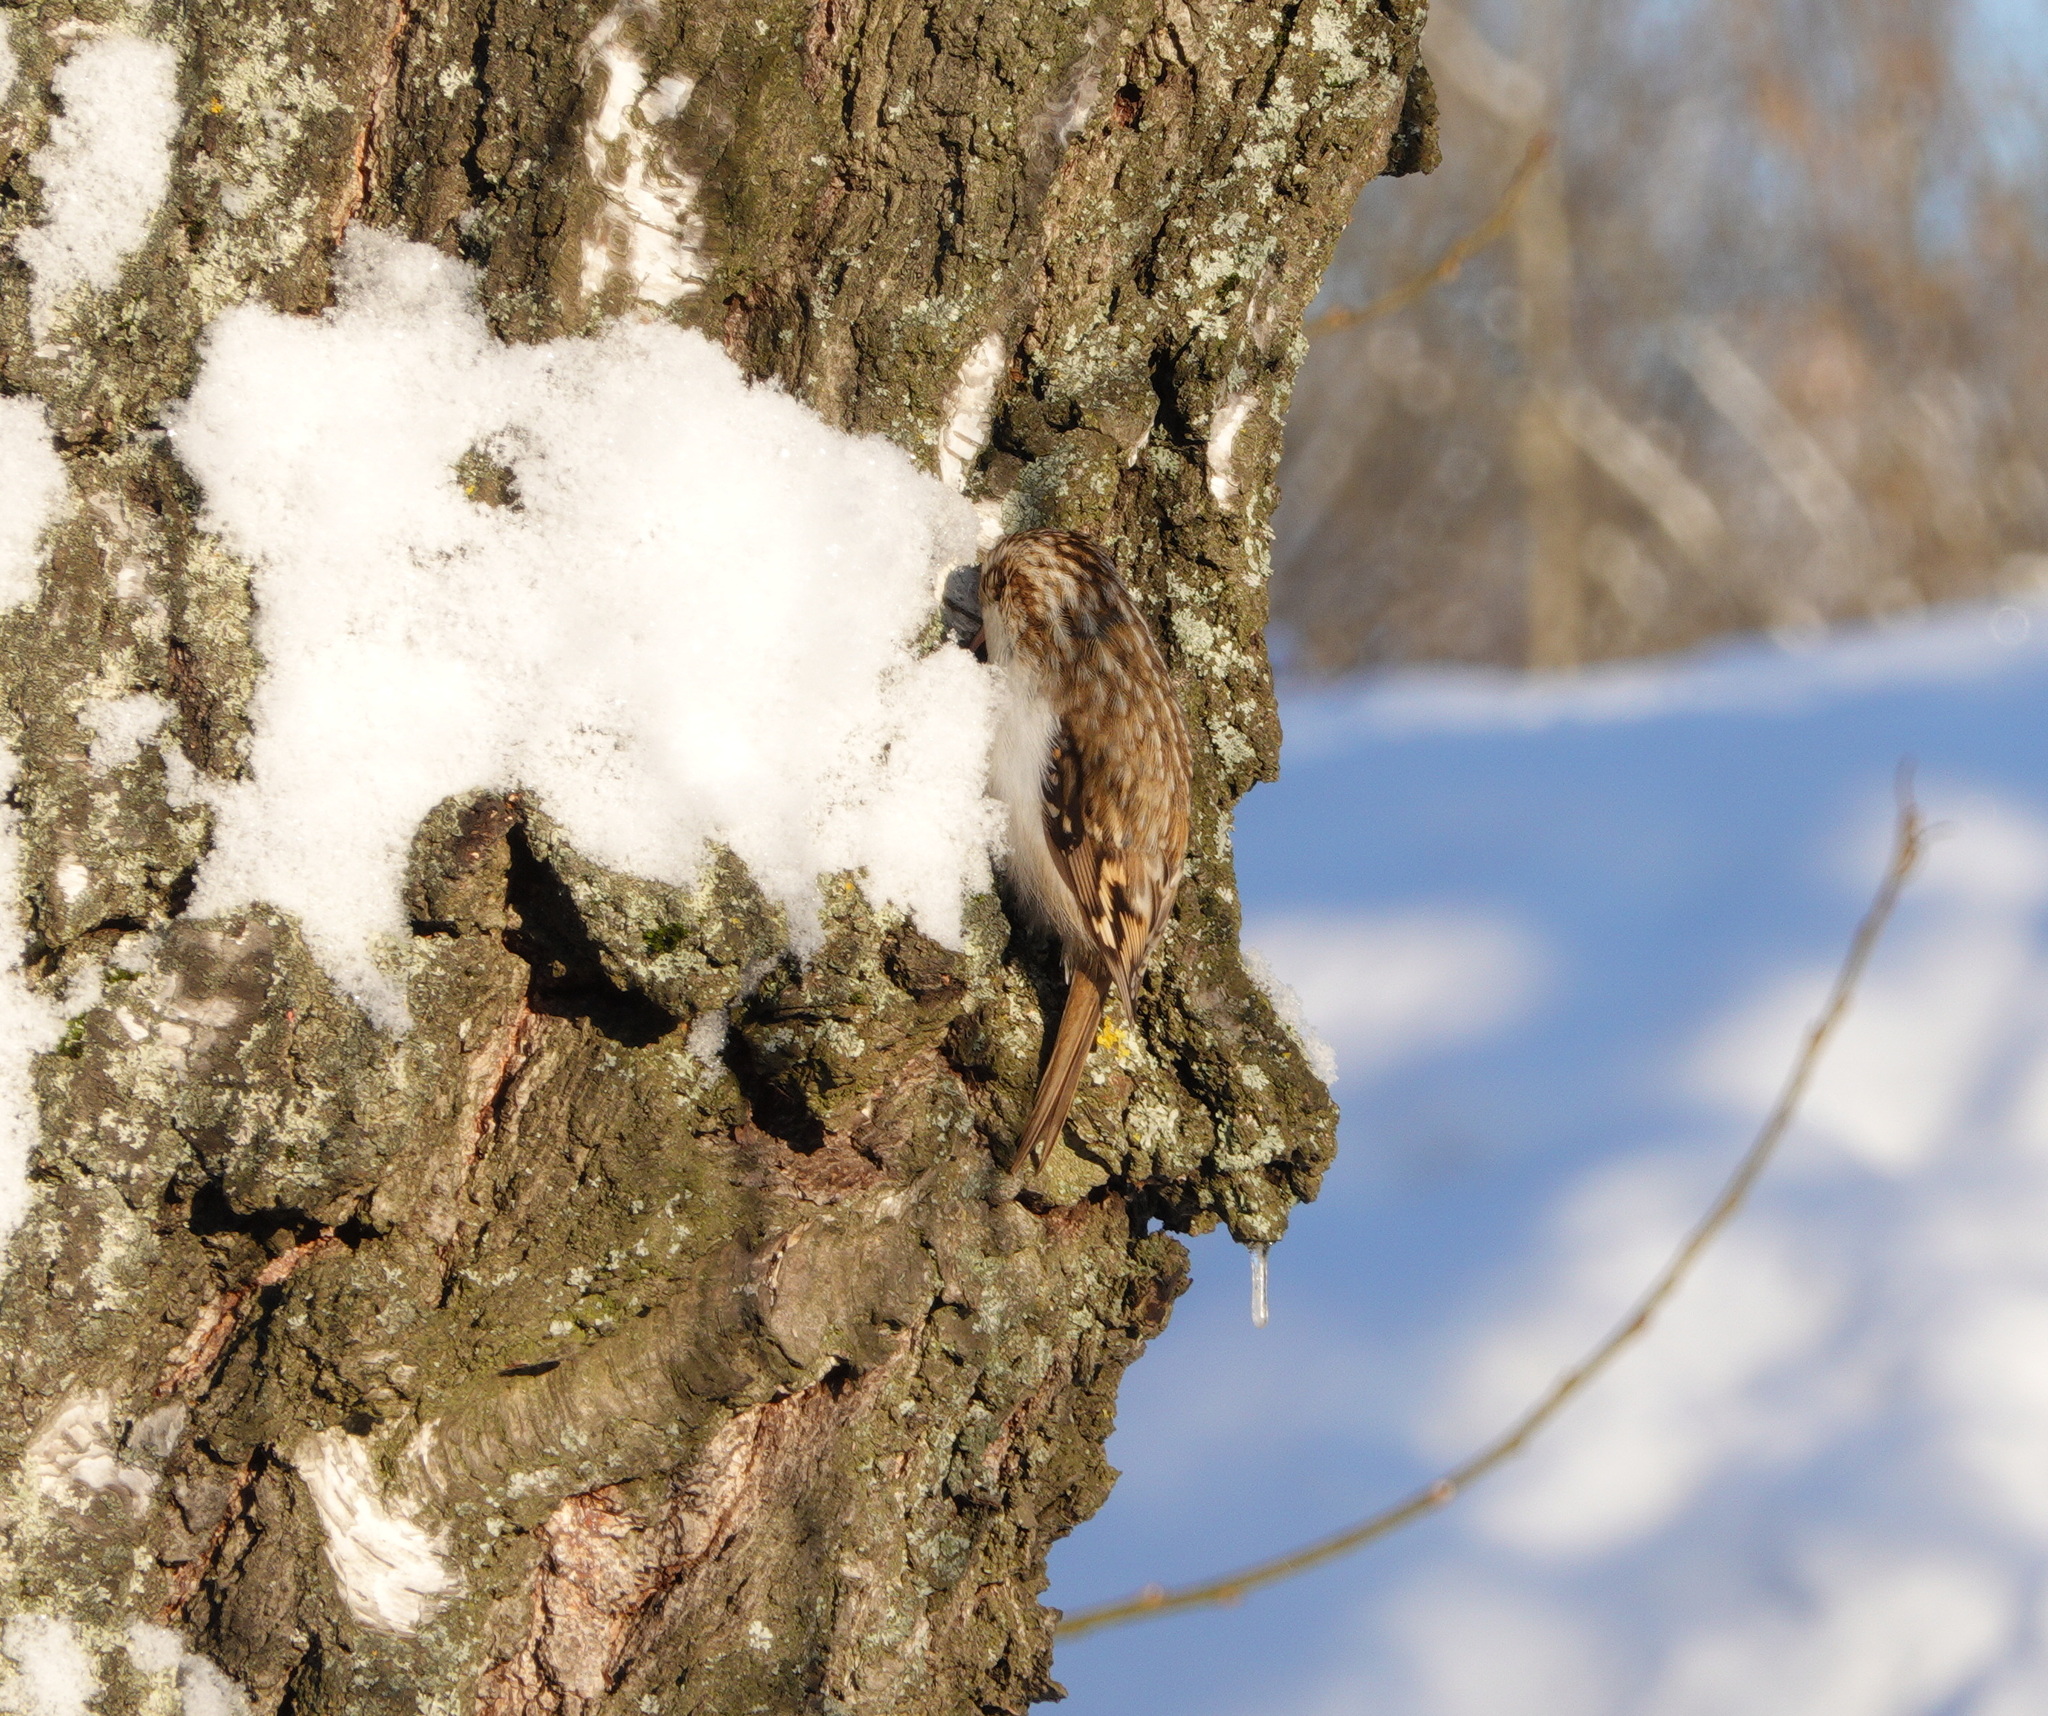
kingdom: Animalia
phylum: Chordata
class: Aves
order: Passeriformes
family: Certhiidae
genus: Certhia
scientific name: Certhia familiaris
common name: Eurasian treecreeper
